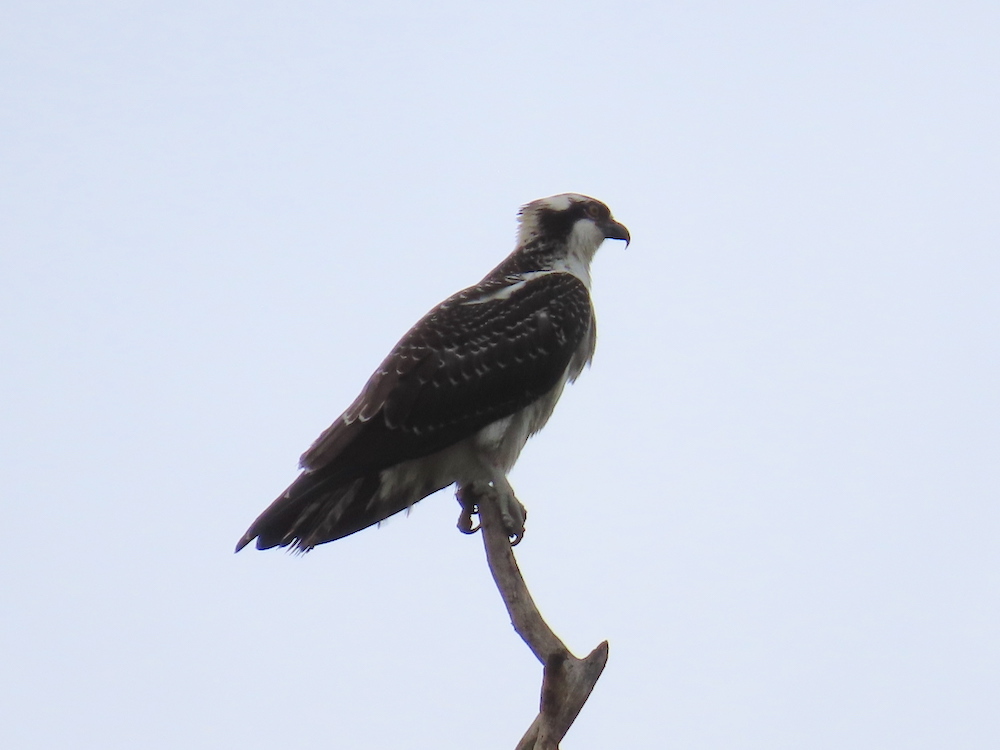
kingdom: Animalia
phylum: Chordata
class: Aves
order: Accipitriformes
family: Pandionidae
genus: Pandion
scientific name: Pandion haliaetus
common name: Osprey
